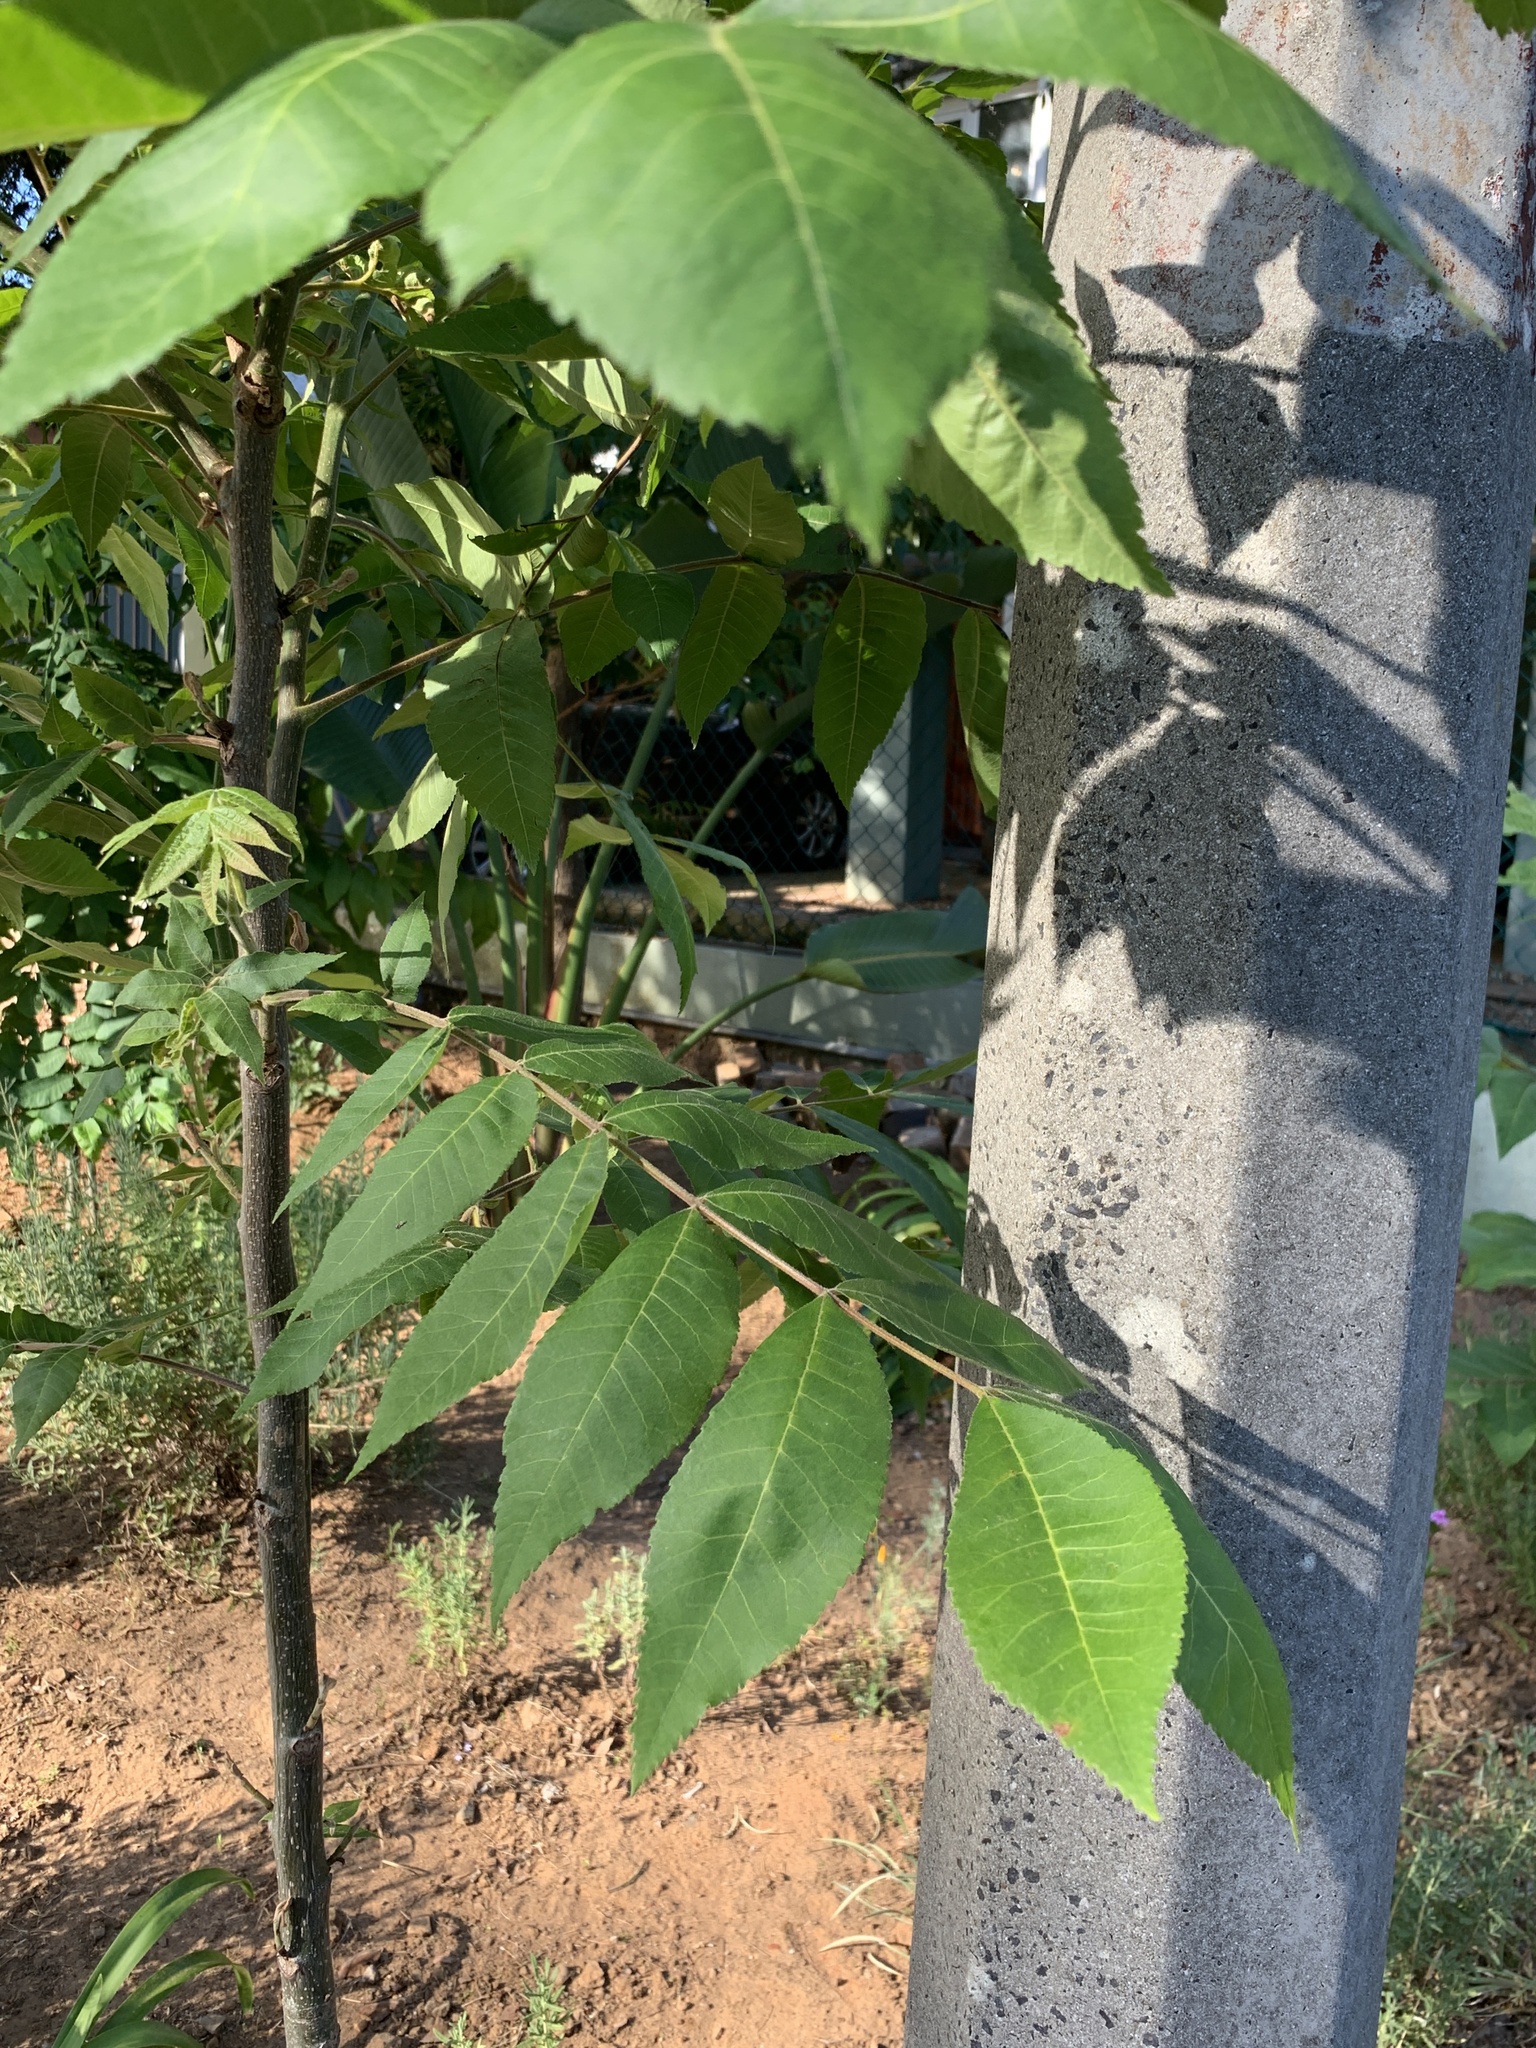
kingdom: Plantae
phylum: Tracheophyta
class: Magnoliopsida
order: Fagales
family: Juglandaceae
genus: Carya
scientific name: Carya illinoinensis
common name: Pecan
